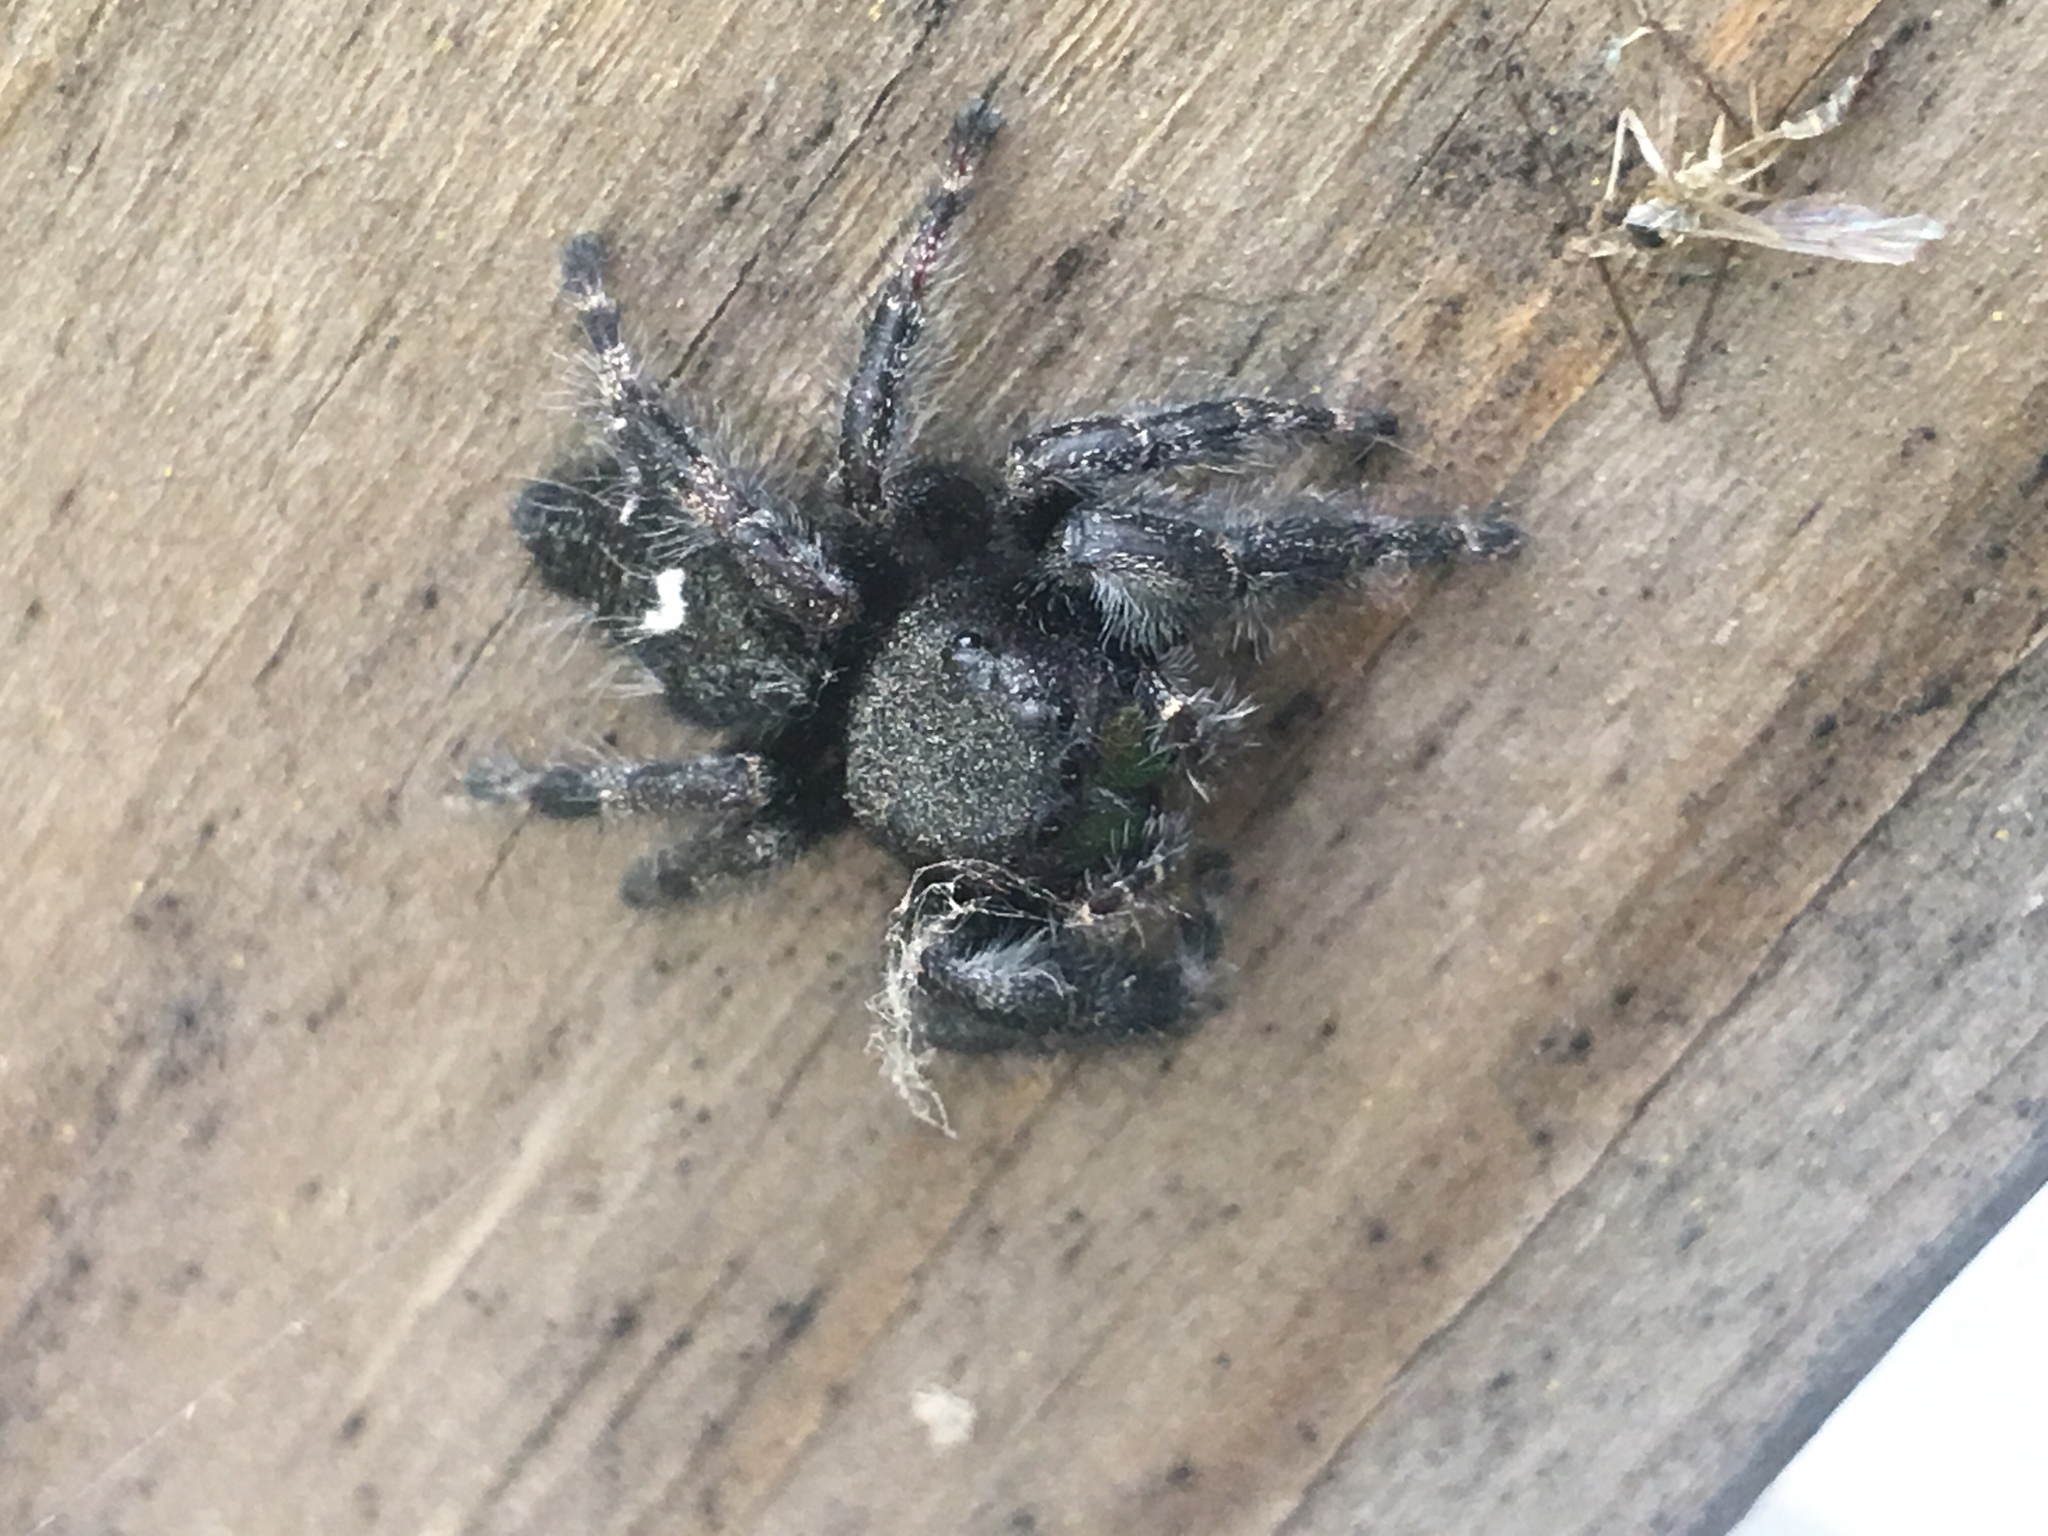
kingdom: Animalia
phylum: Arthropoda
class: Arachnida
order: Araneae
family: Salticidae
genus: Phidippus
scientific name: Phidippus audax
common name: Bold jumper
